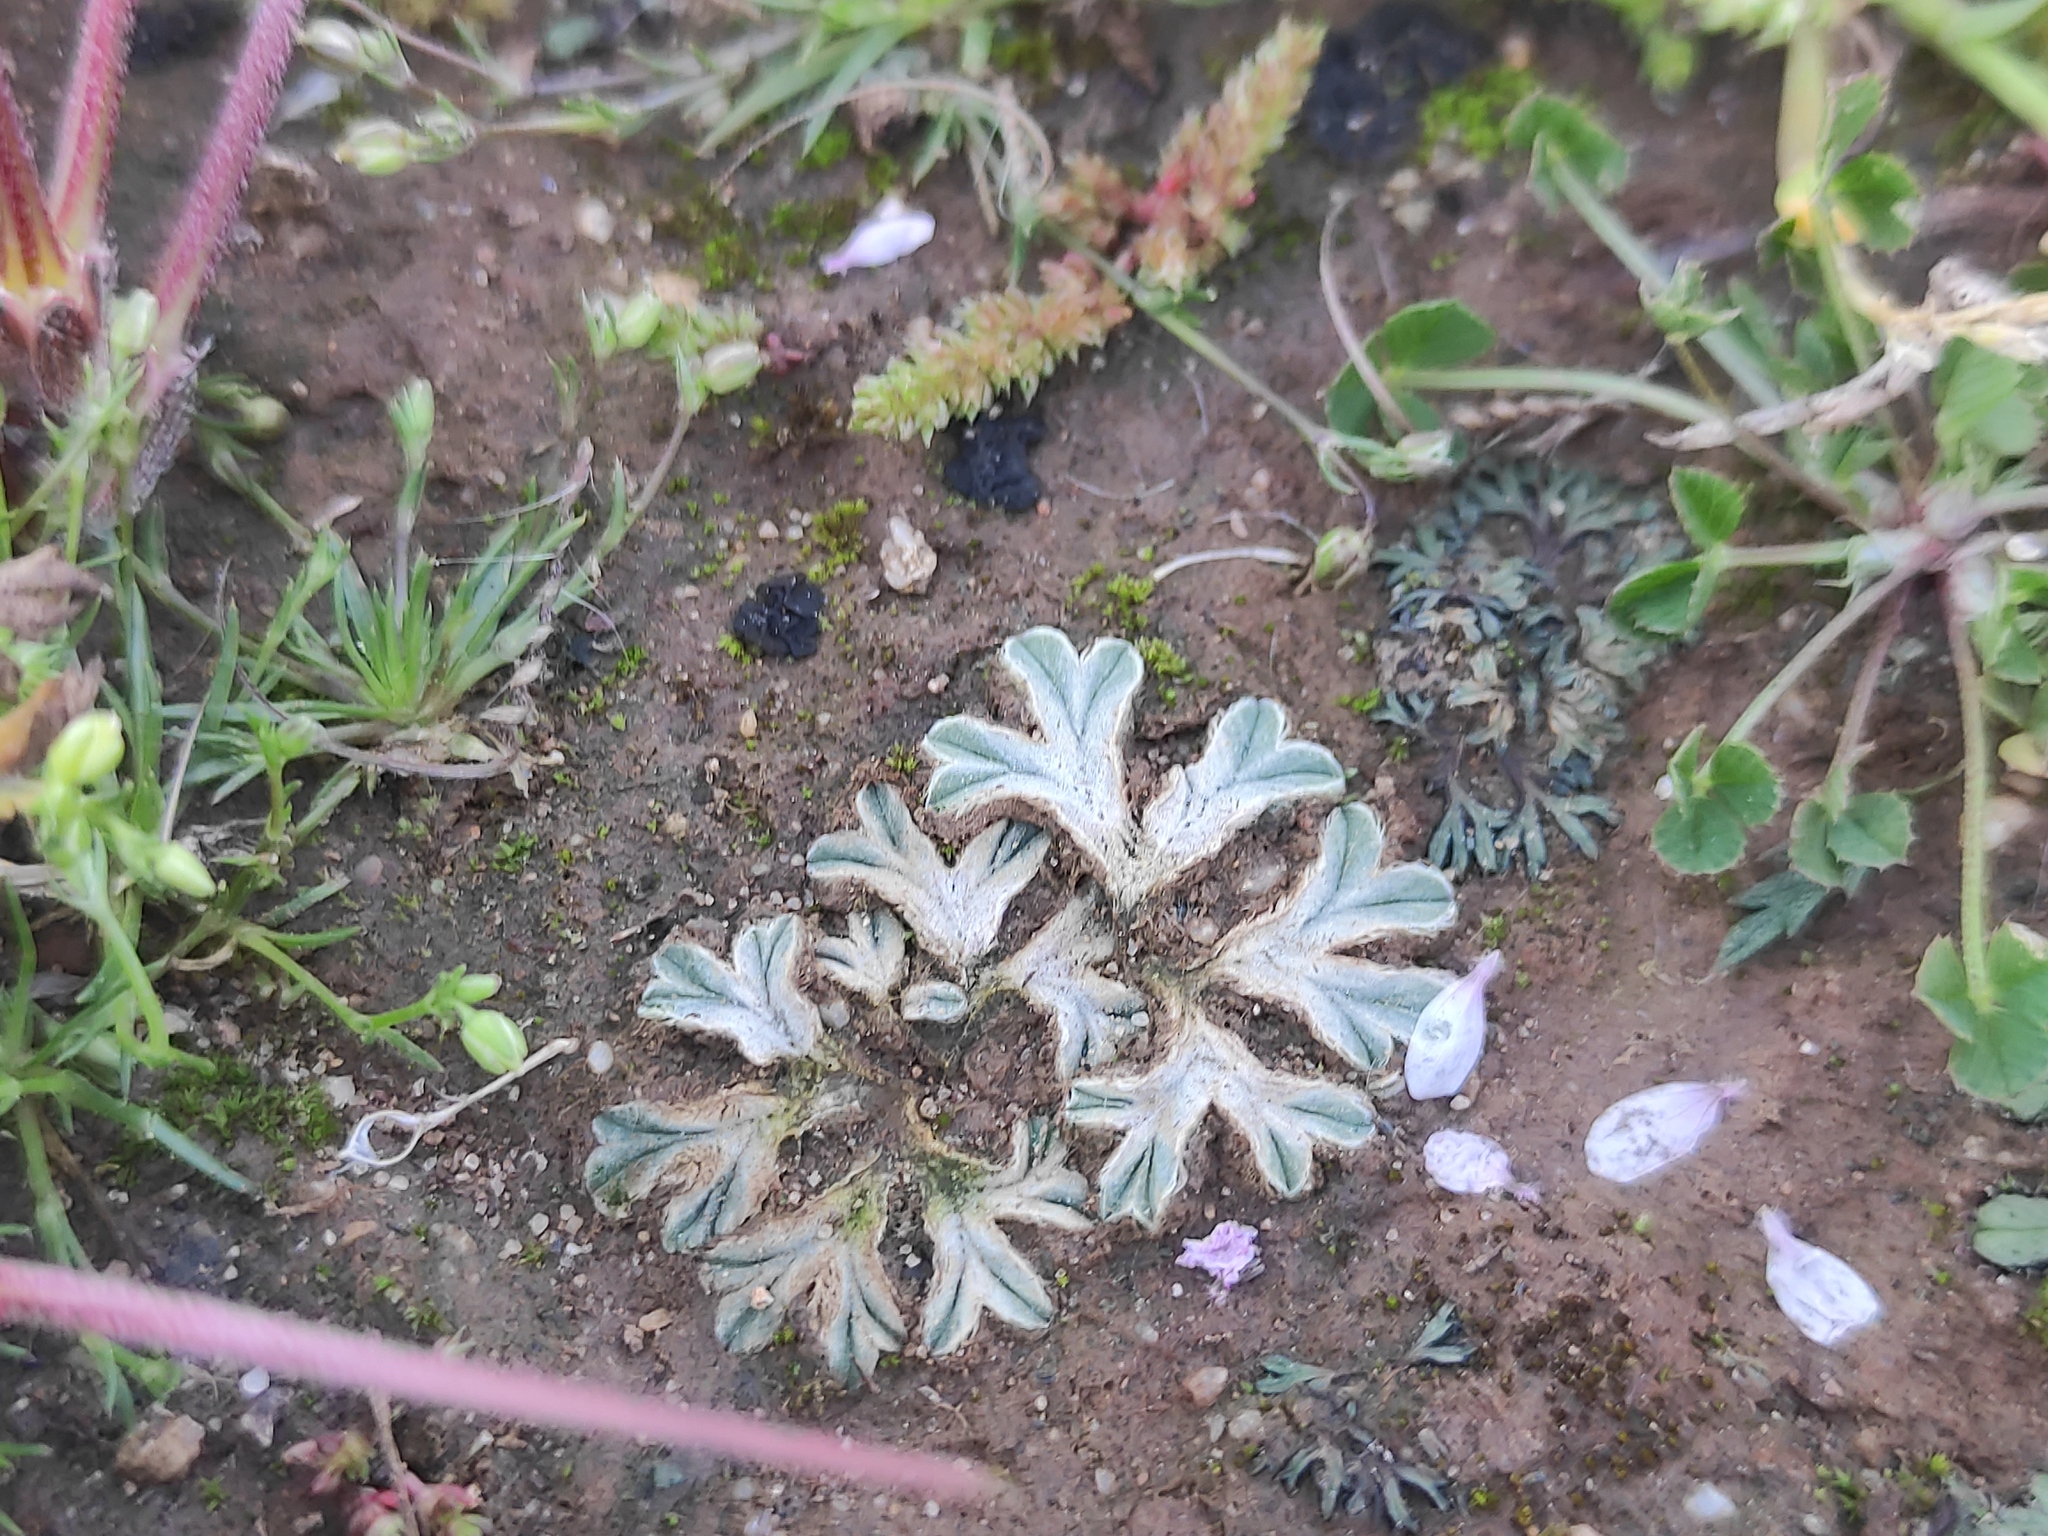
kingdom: Plantae
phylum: Marchantiophyta
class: Marchantiopsida
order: Marchantiales
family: Ricciaceae
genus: Riccia
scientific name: Riccia lamellosa
